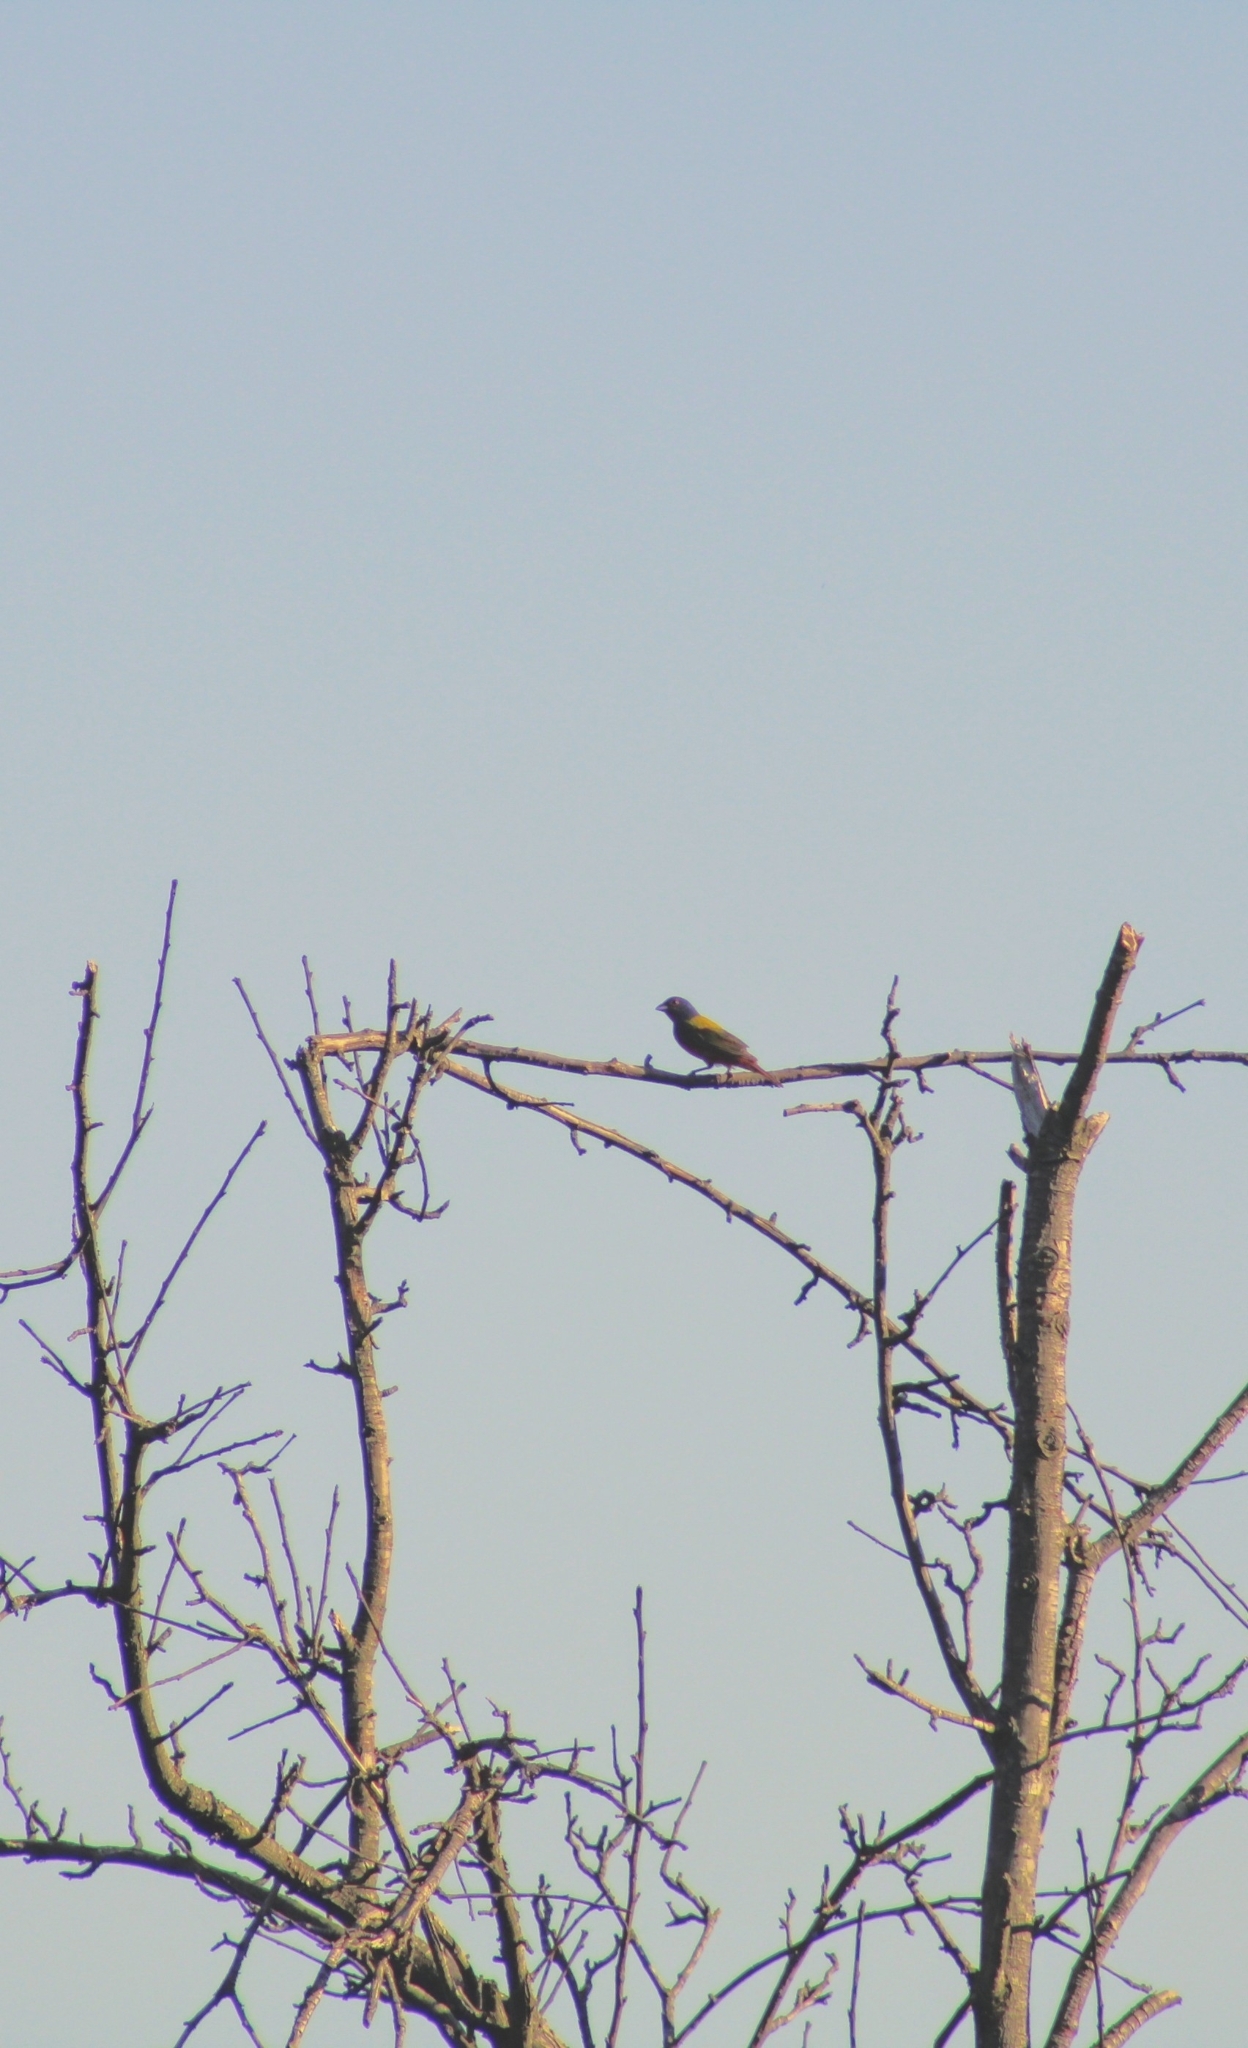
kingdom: Animalia
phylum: Chordata
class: Aves
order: Passeriformes
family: Cardinalidae
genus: Passerina
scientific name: Passerina ciris
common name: Painted bunting
